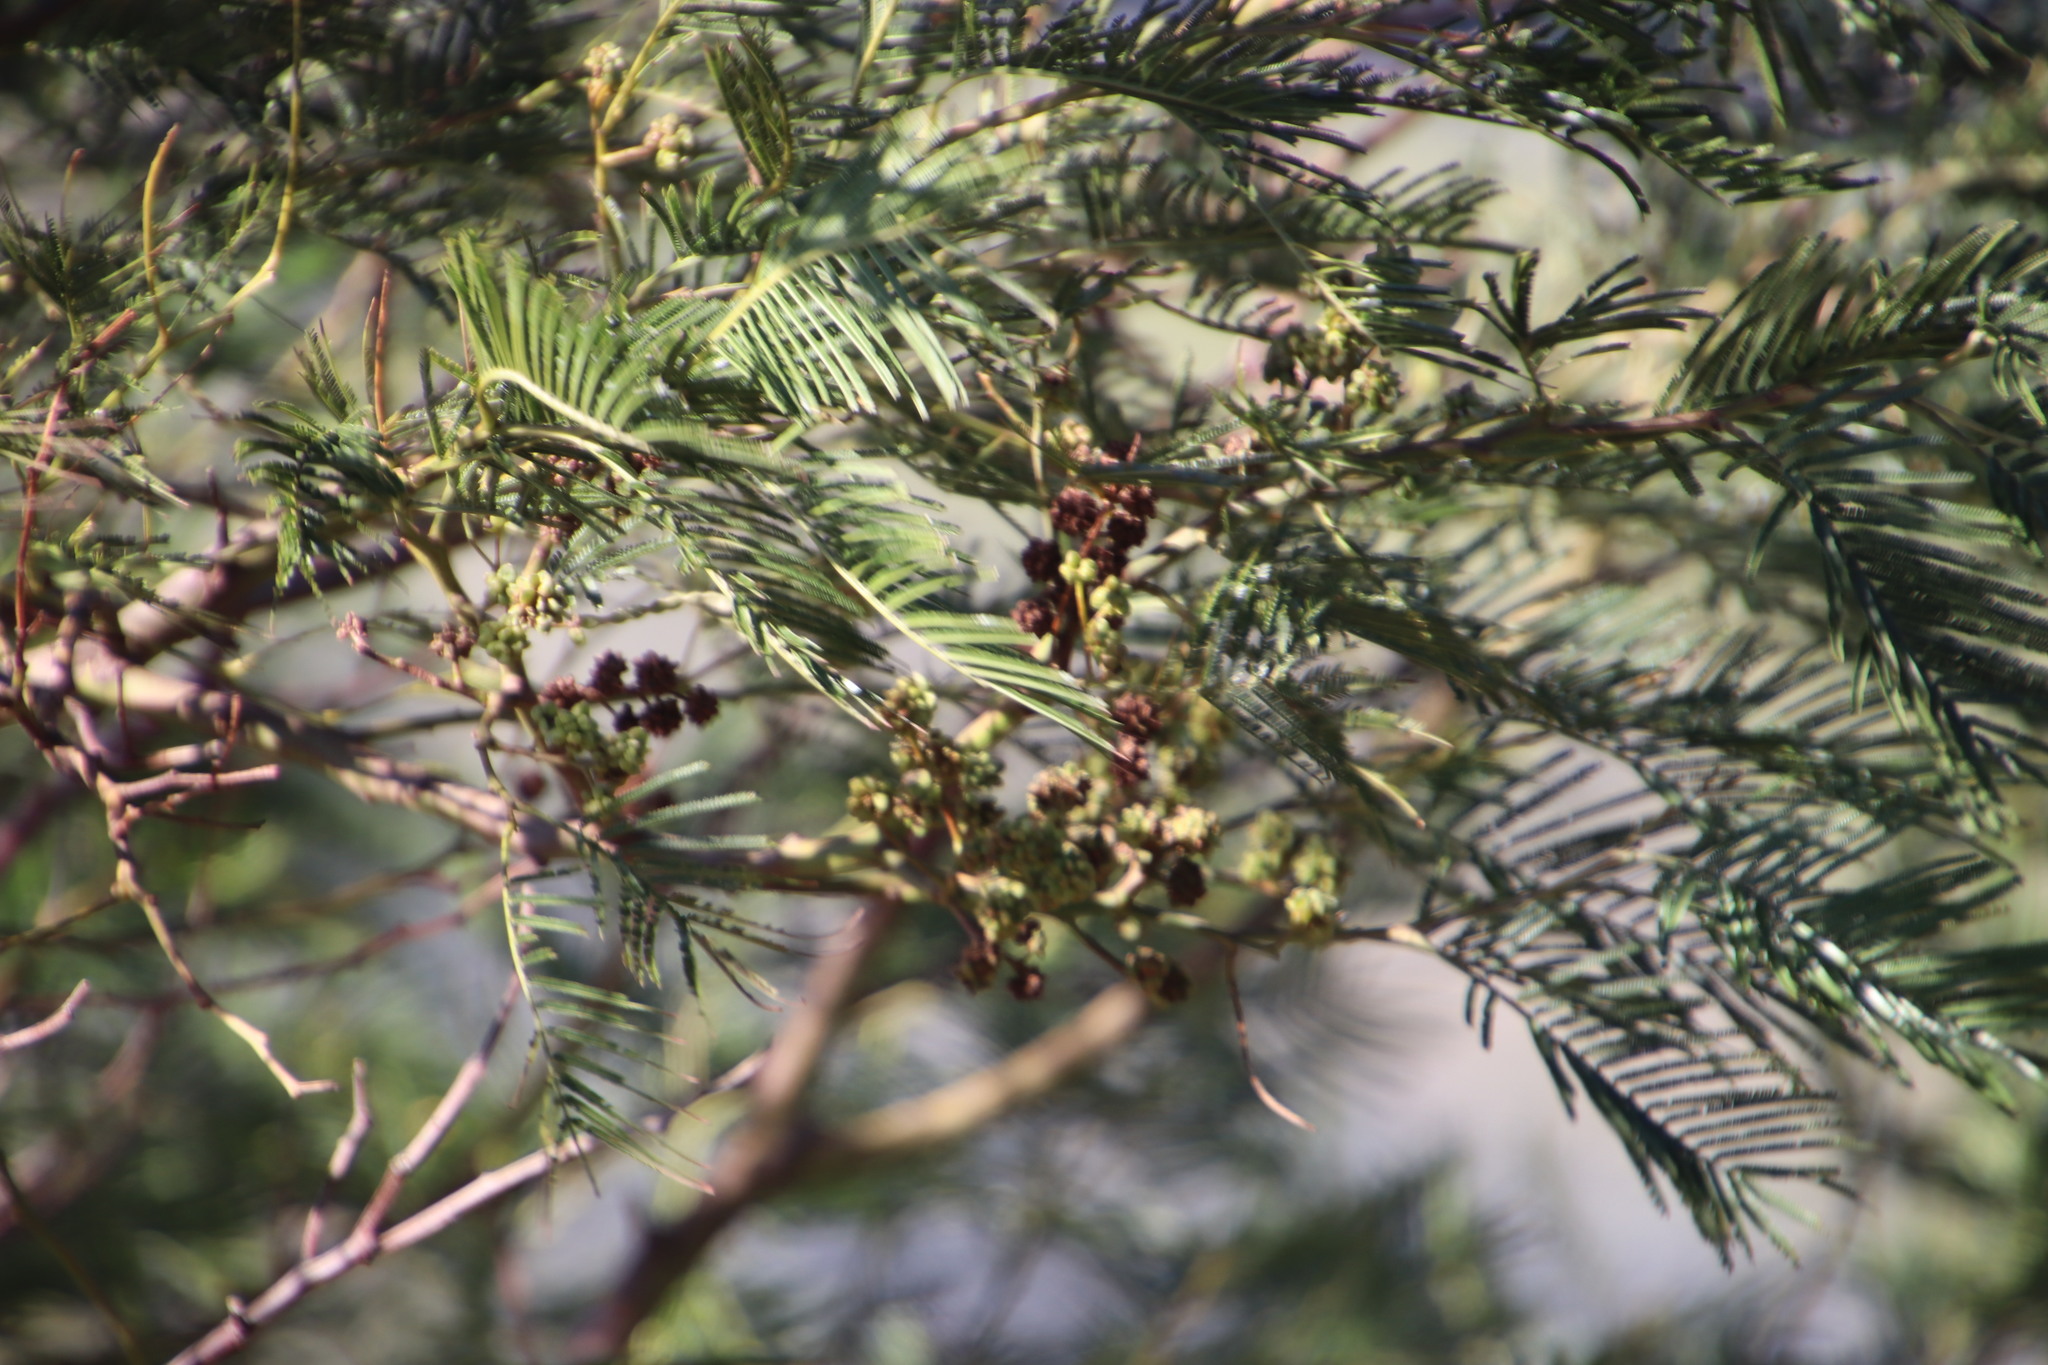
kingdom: Animalia
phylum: Arthropoda
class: Insecta
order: Diptera
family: Cecidomyiidae
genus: Dasineura
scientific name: Dasineura rubiformis
